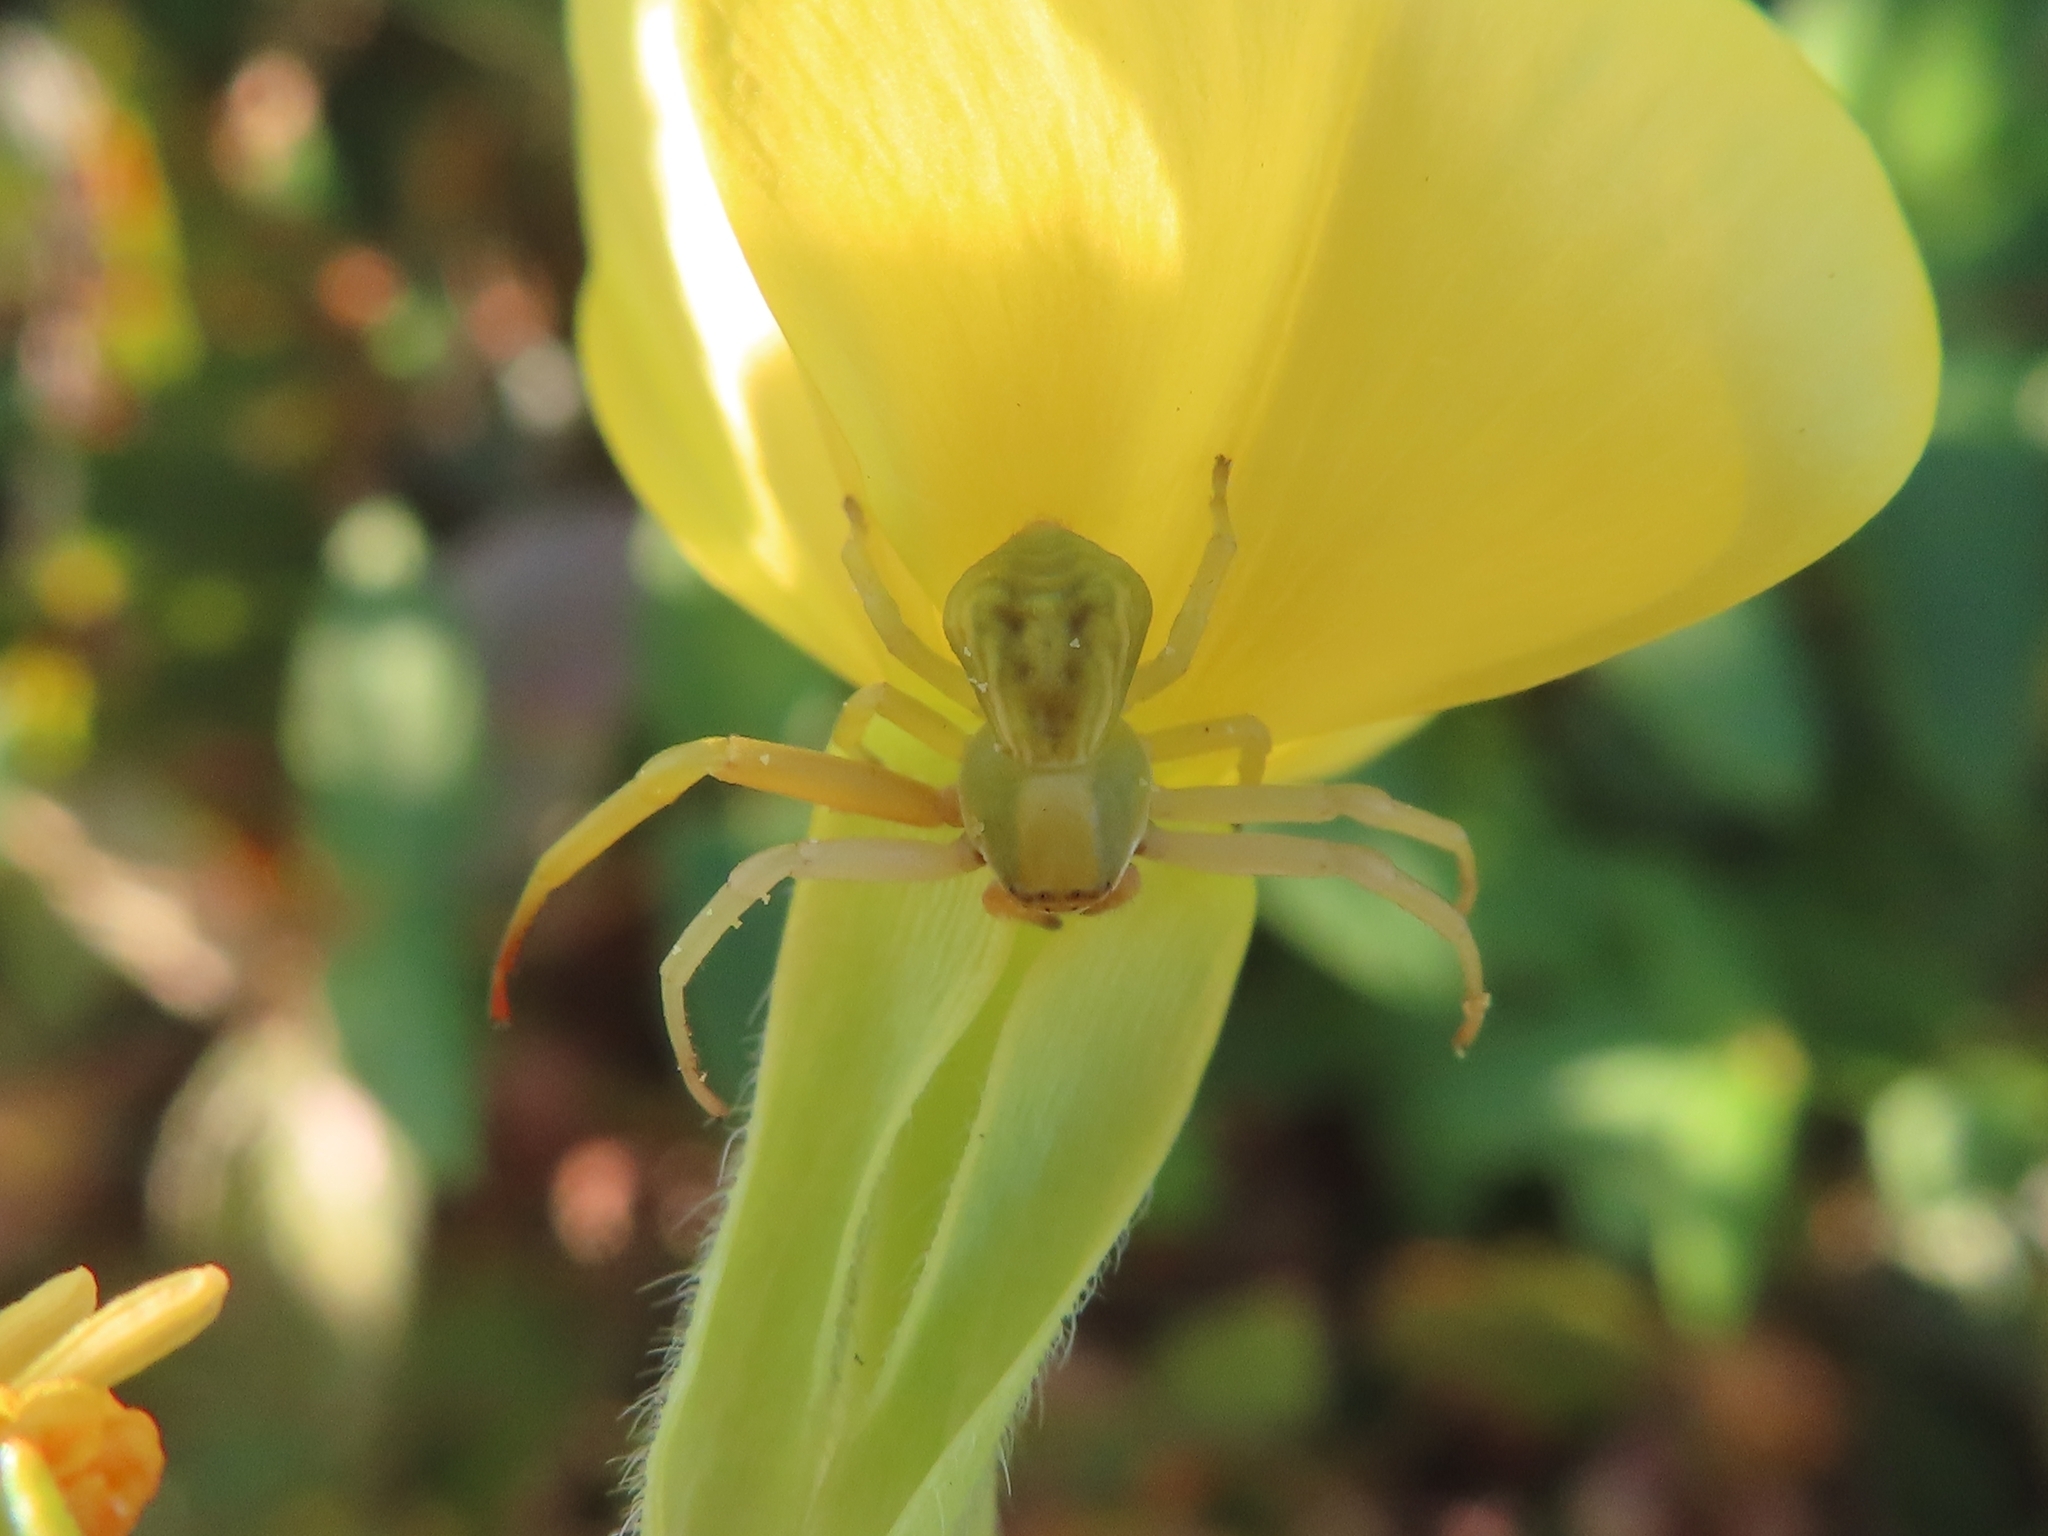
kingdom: Animalia
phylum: Arthropoda
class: Arachnida
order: Araneae
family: Thomisidae
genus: Misumenoides
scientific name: Misumenoides formosipes
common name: White-banded crab spider
